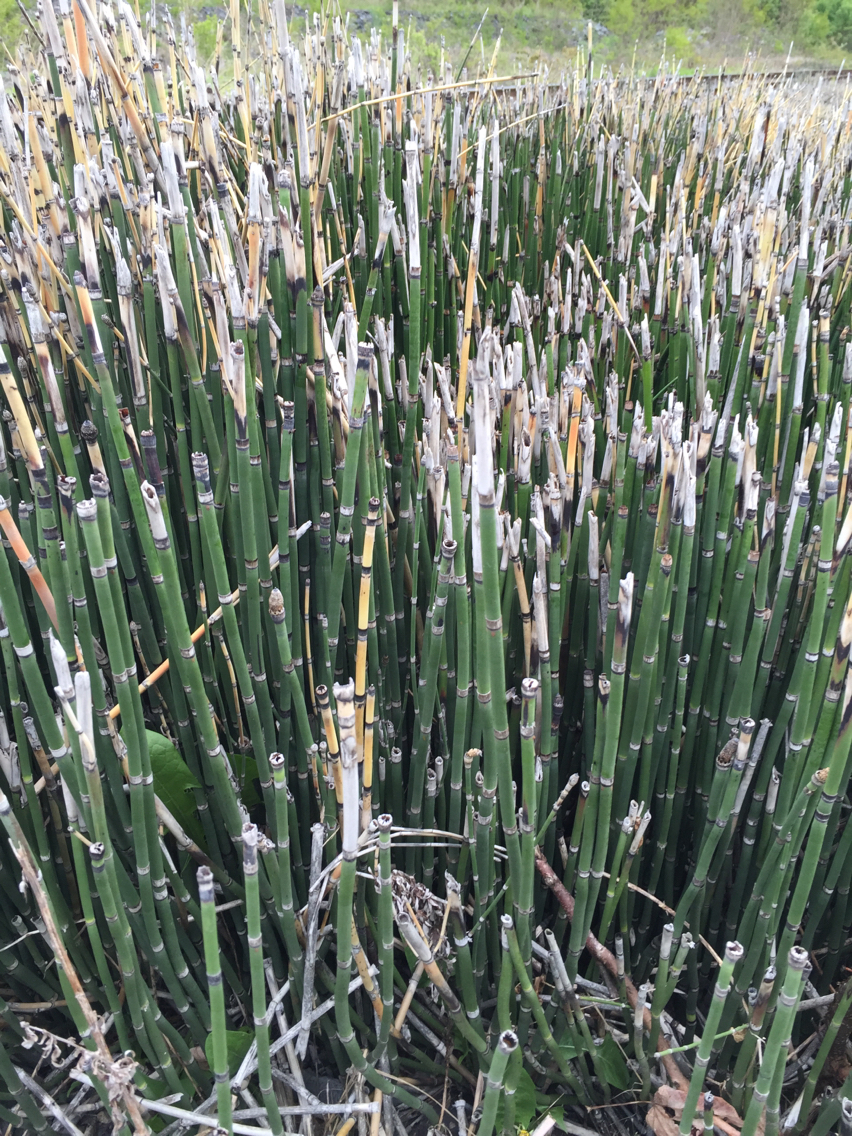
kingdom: Plantae
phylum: Tracheophyta
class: Polypodiopsida
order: Equisetales
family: Equisetaceae
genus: Equisetum
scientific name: Equisetum hyemale
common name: Rough horsetail
